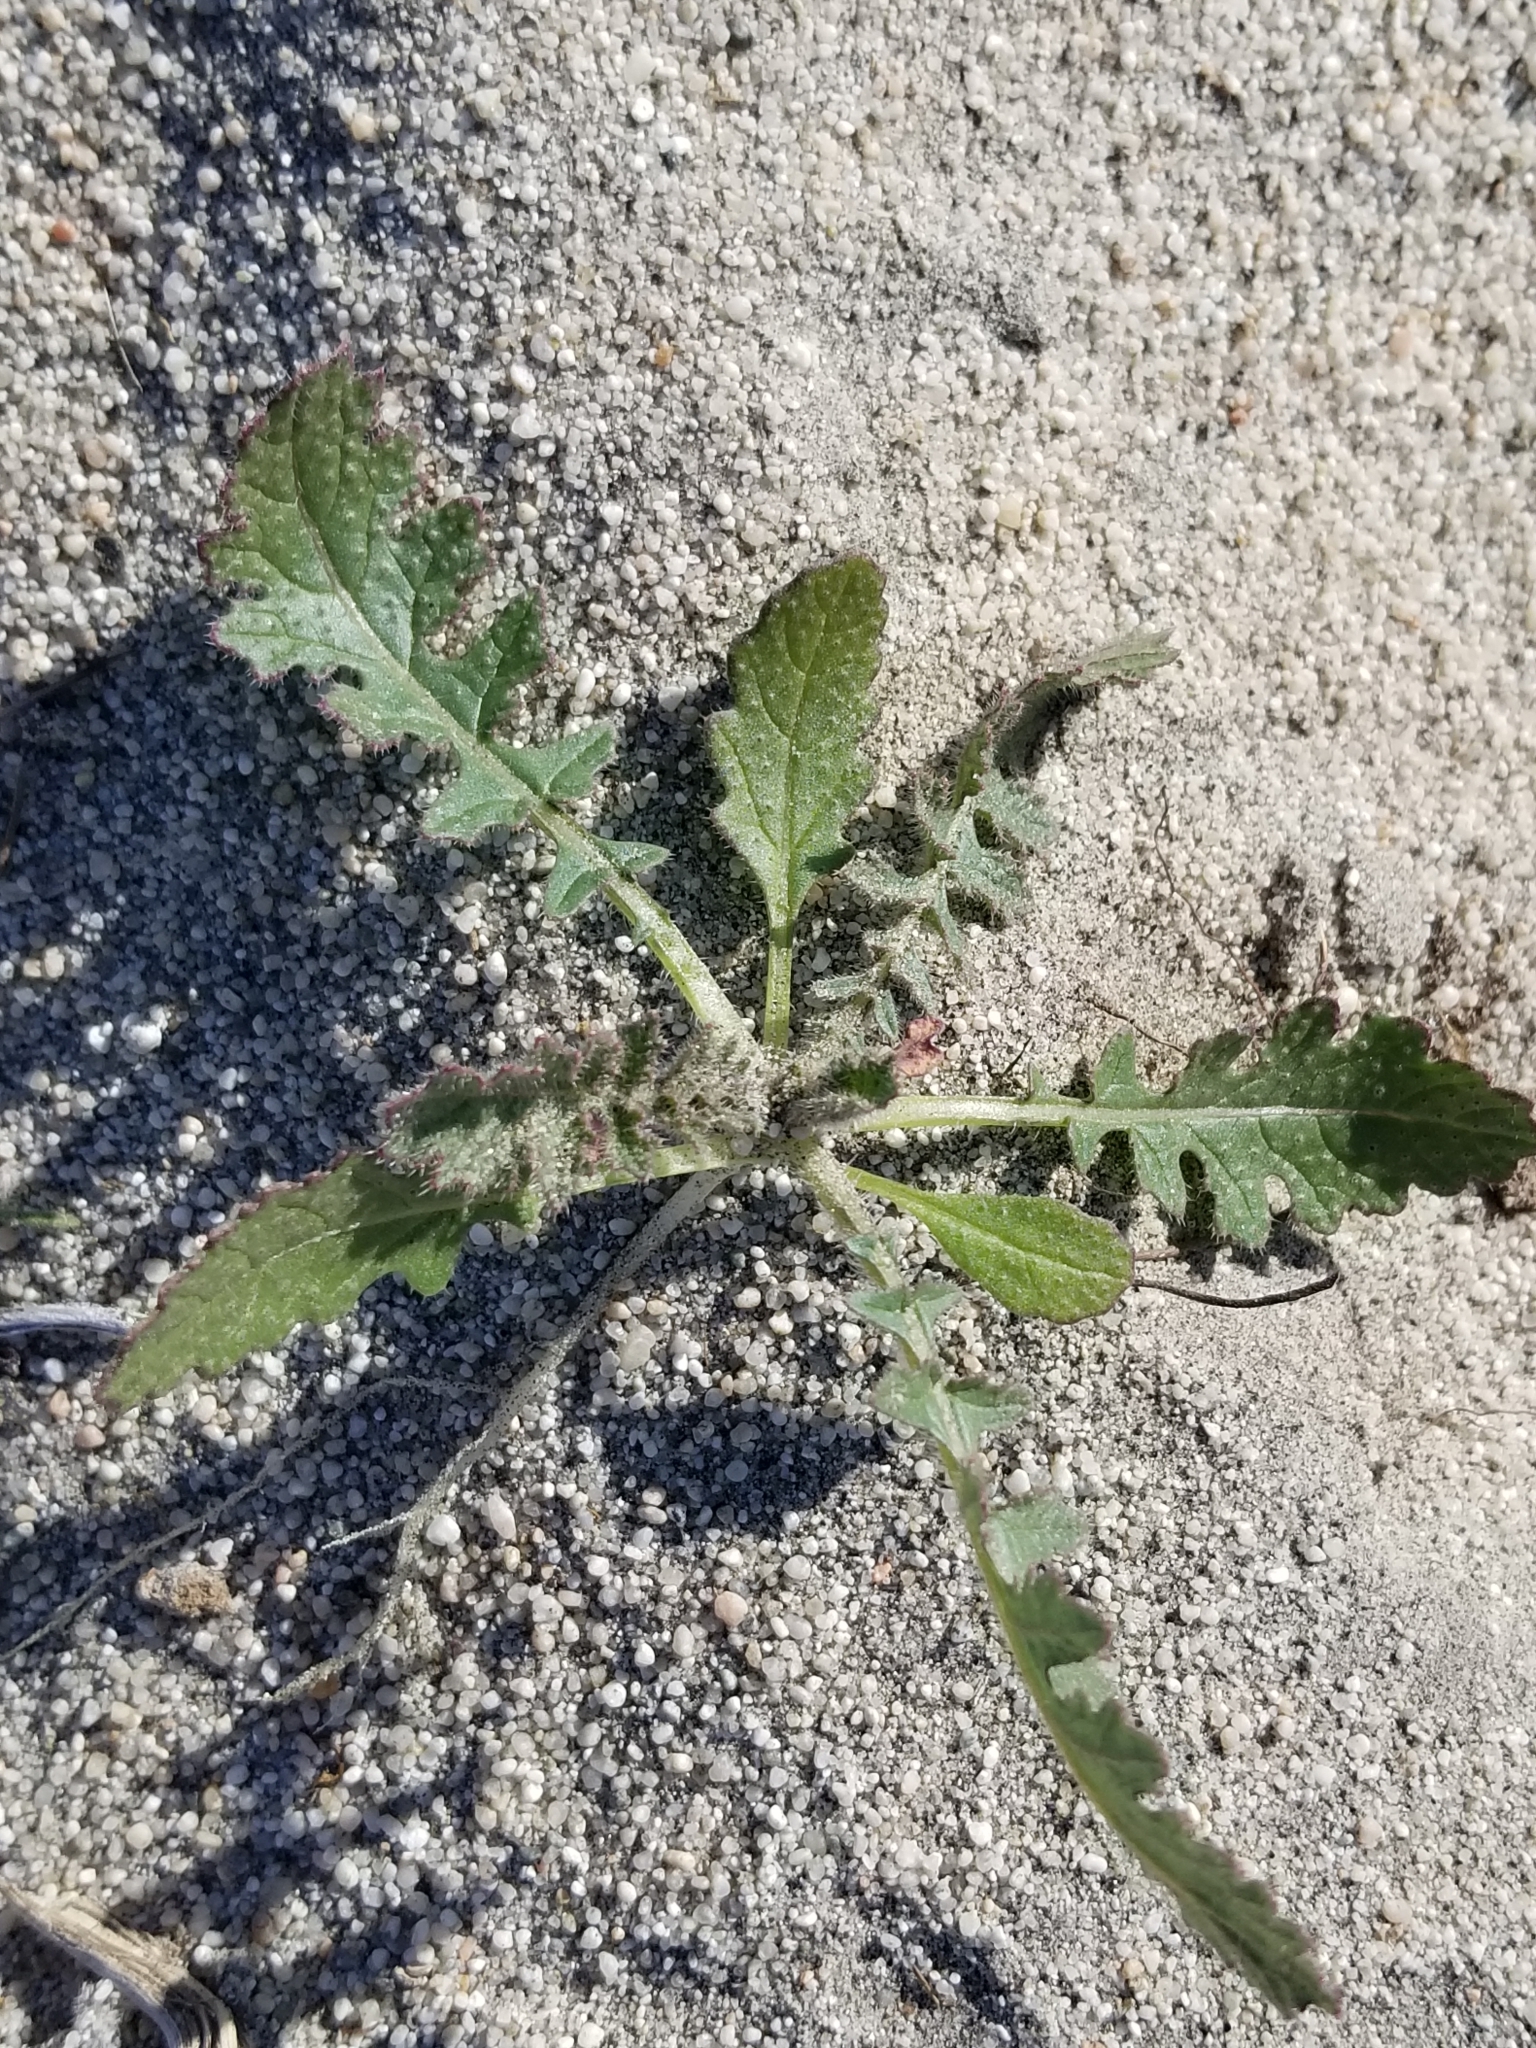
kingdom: Plantae
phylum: Tracheophyta
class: Magnoliopsida
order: Brassicales
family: Brassicaceae
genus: Brassica
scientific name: Brassica tournefortii
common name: Pale cabbage
